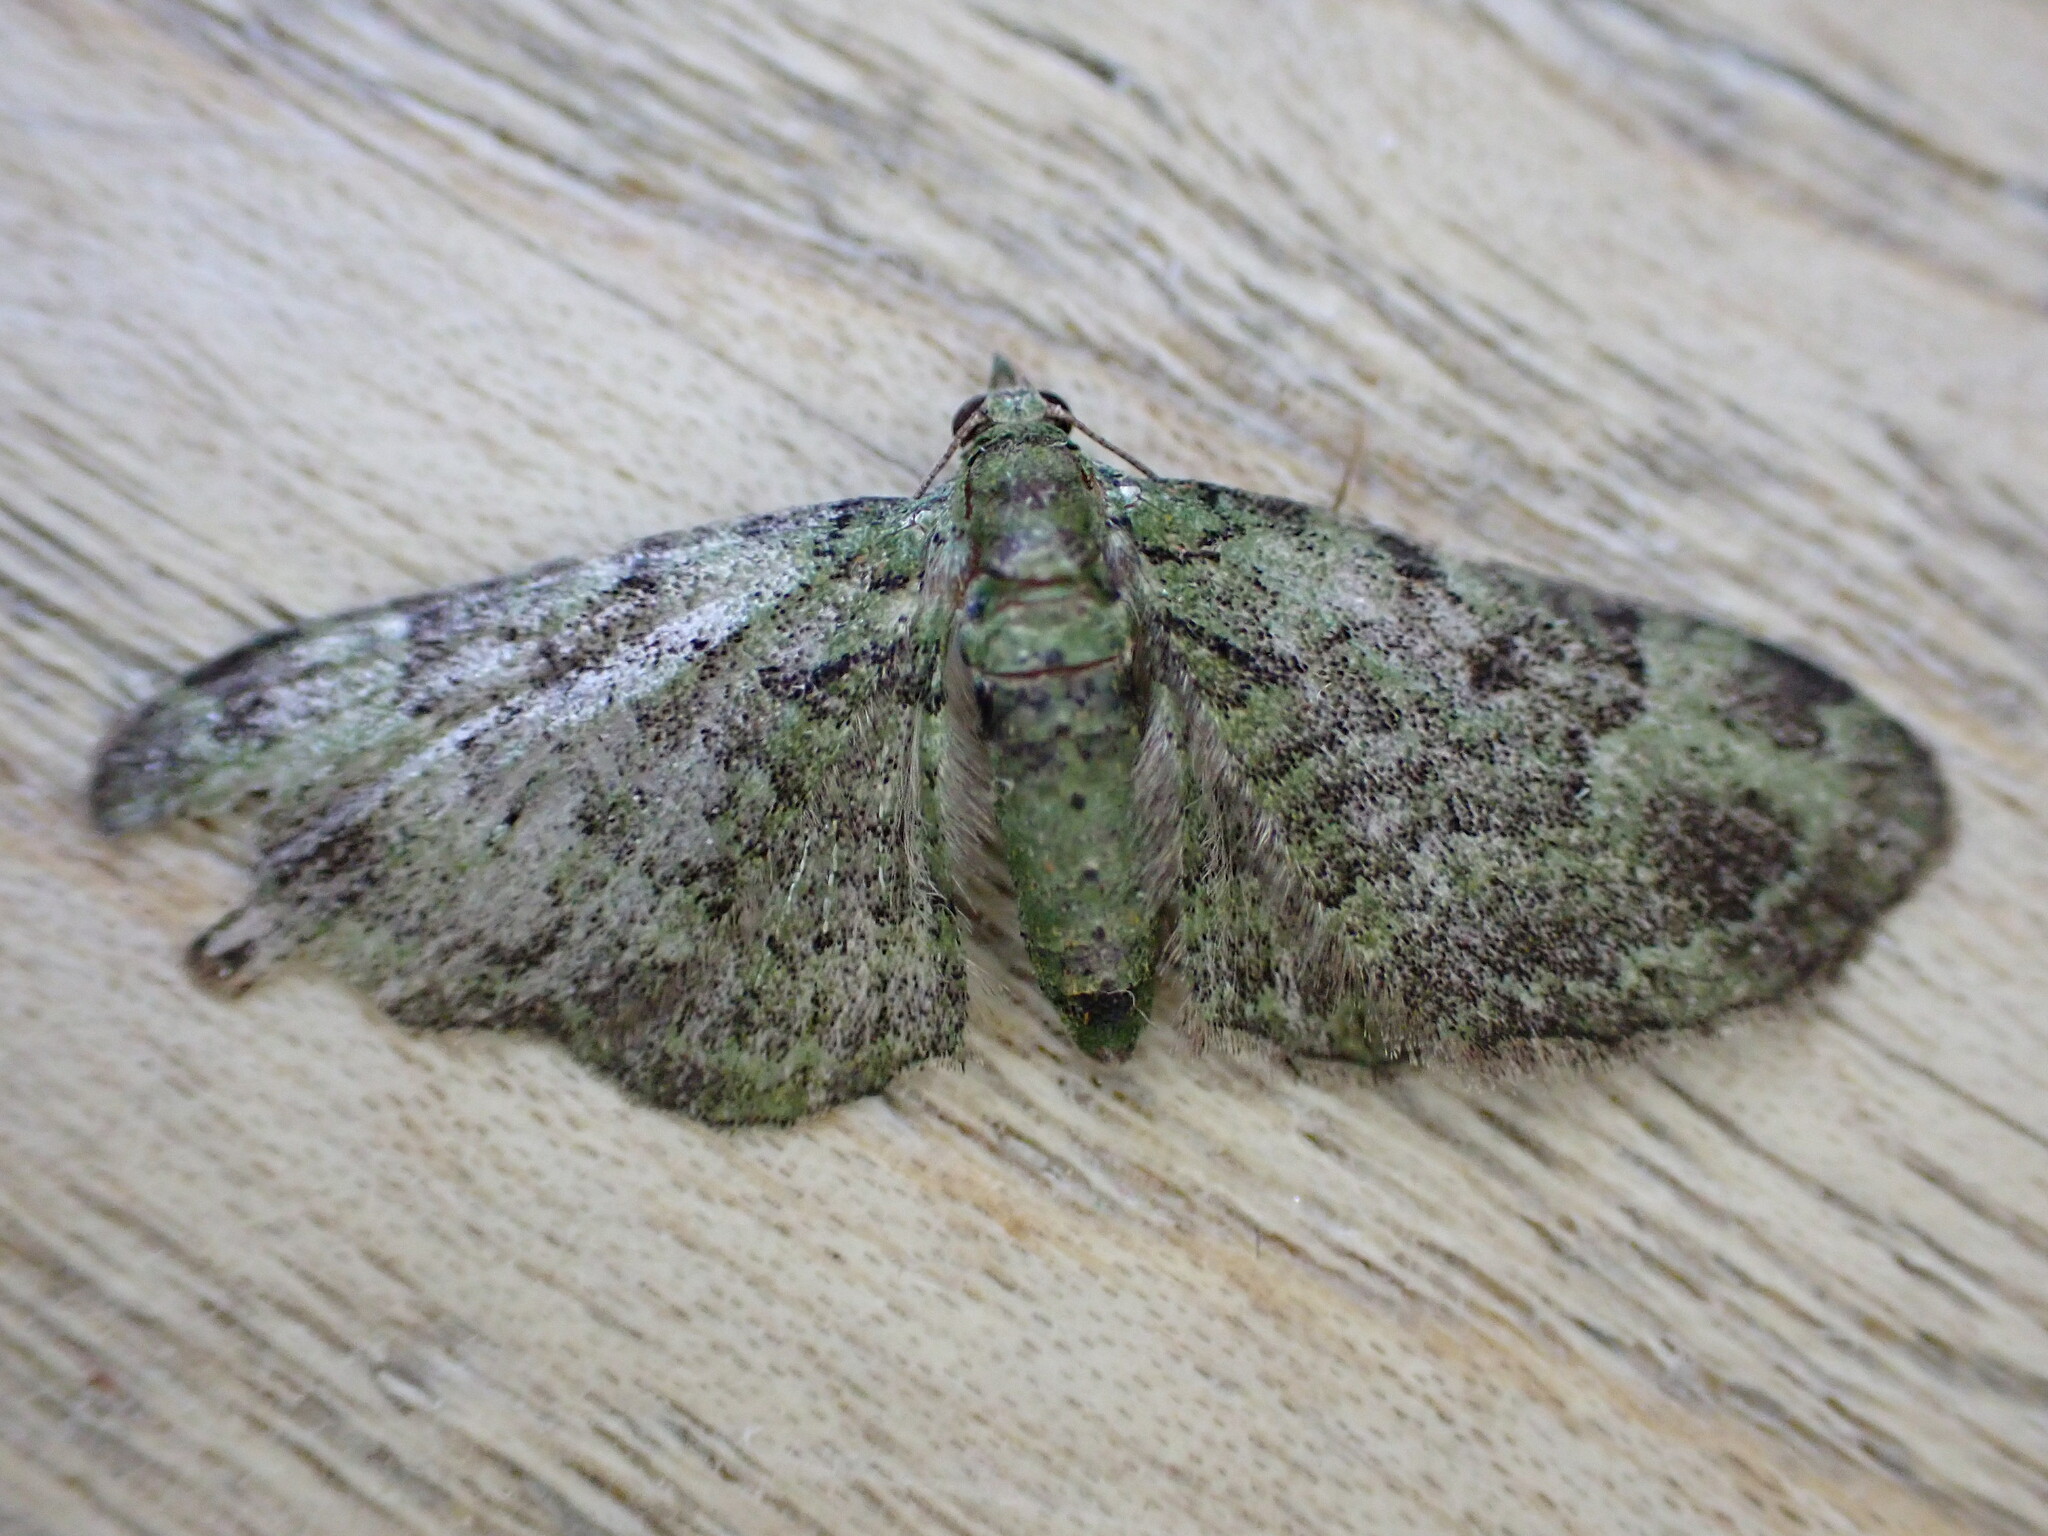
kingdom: Animalia
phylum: Arthropoda
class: Insecta
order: Lepidoptera
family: Geometridae
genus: Pasiphila
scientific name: Pasiphila rectangulata
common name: Green pug
